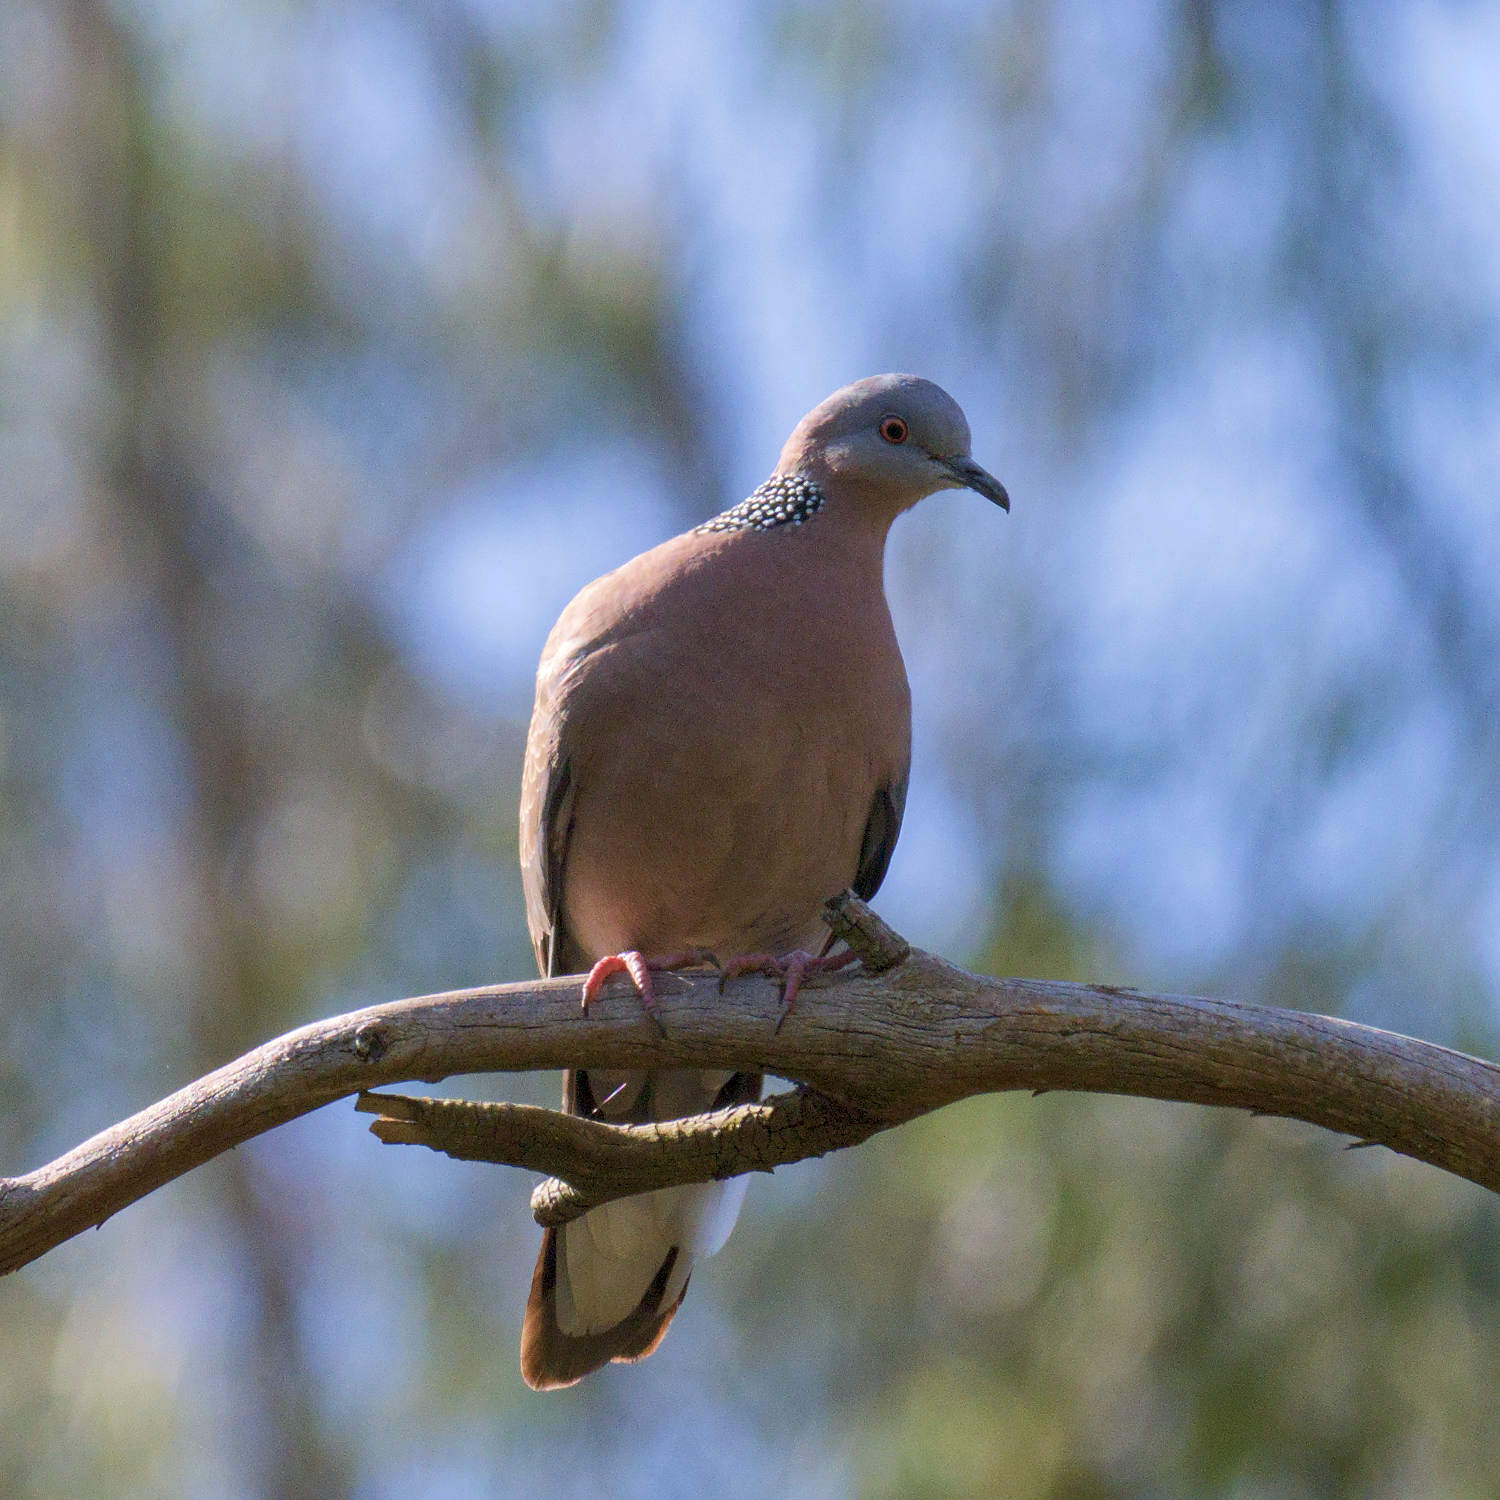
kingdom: Animalia
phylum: Chordata
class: Aves
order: Columbiformes
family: Columbidae
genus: Spilopelia
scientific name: Spilopelia chinensis
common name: Spotted dove
